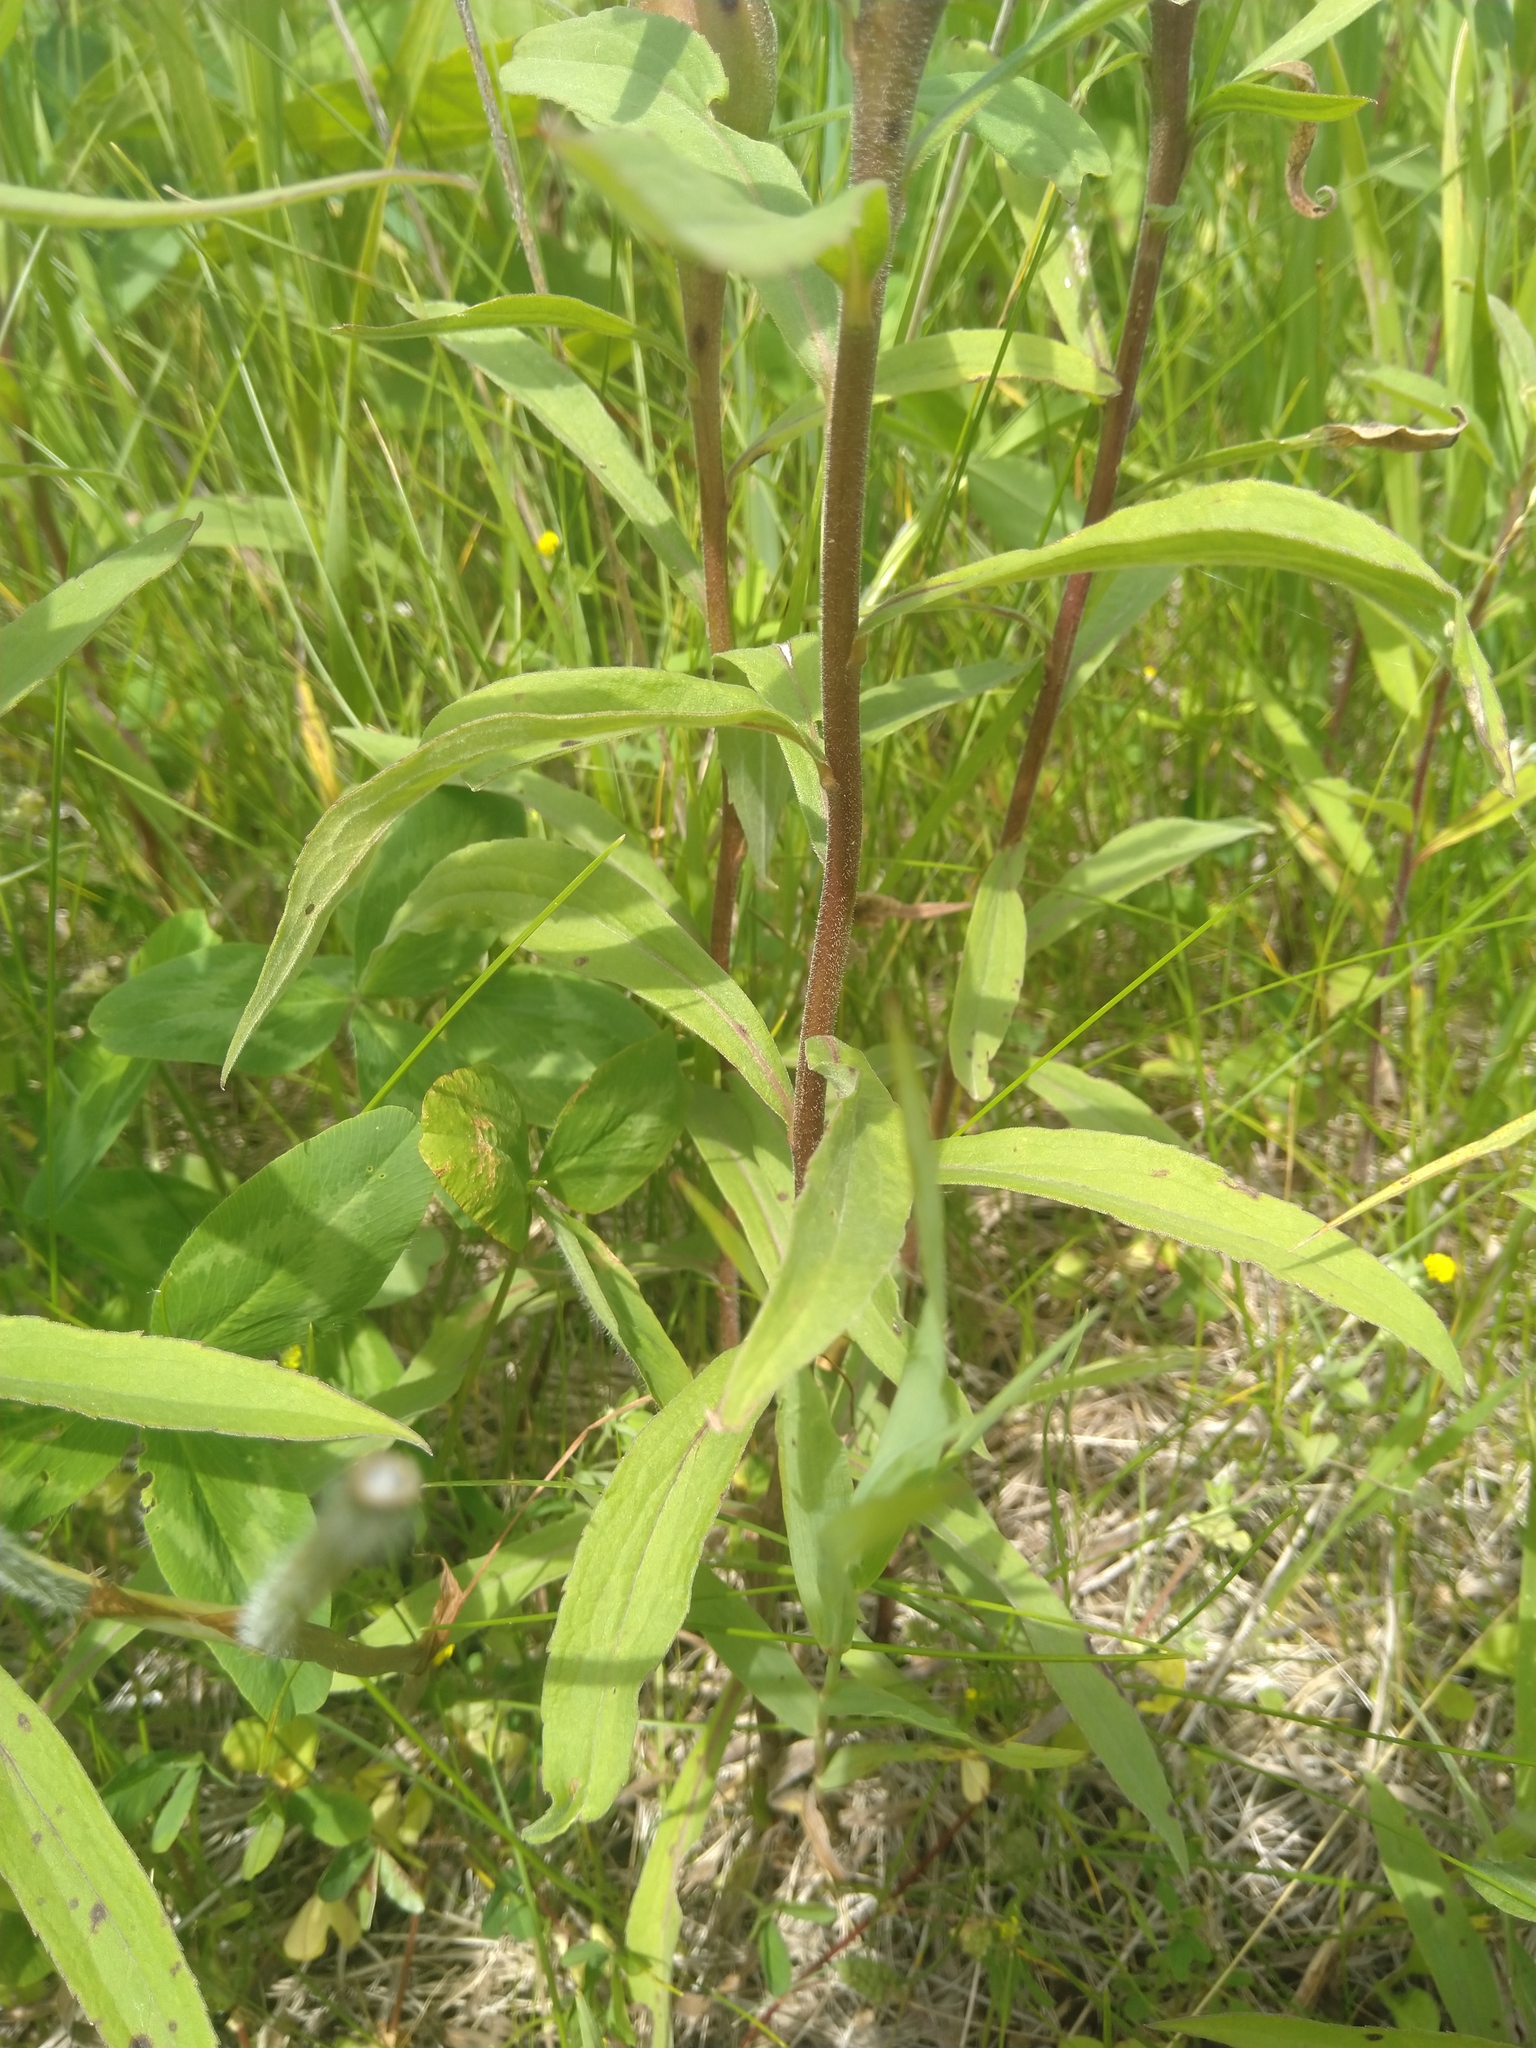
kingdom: Animalia
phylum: Arthropoda
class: Insecta
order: Diptera
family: Tephritidae
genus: Eurosta
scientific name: Eurosta solidaginis
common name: Goldenrod gall fly
